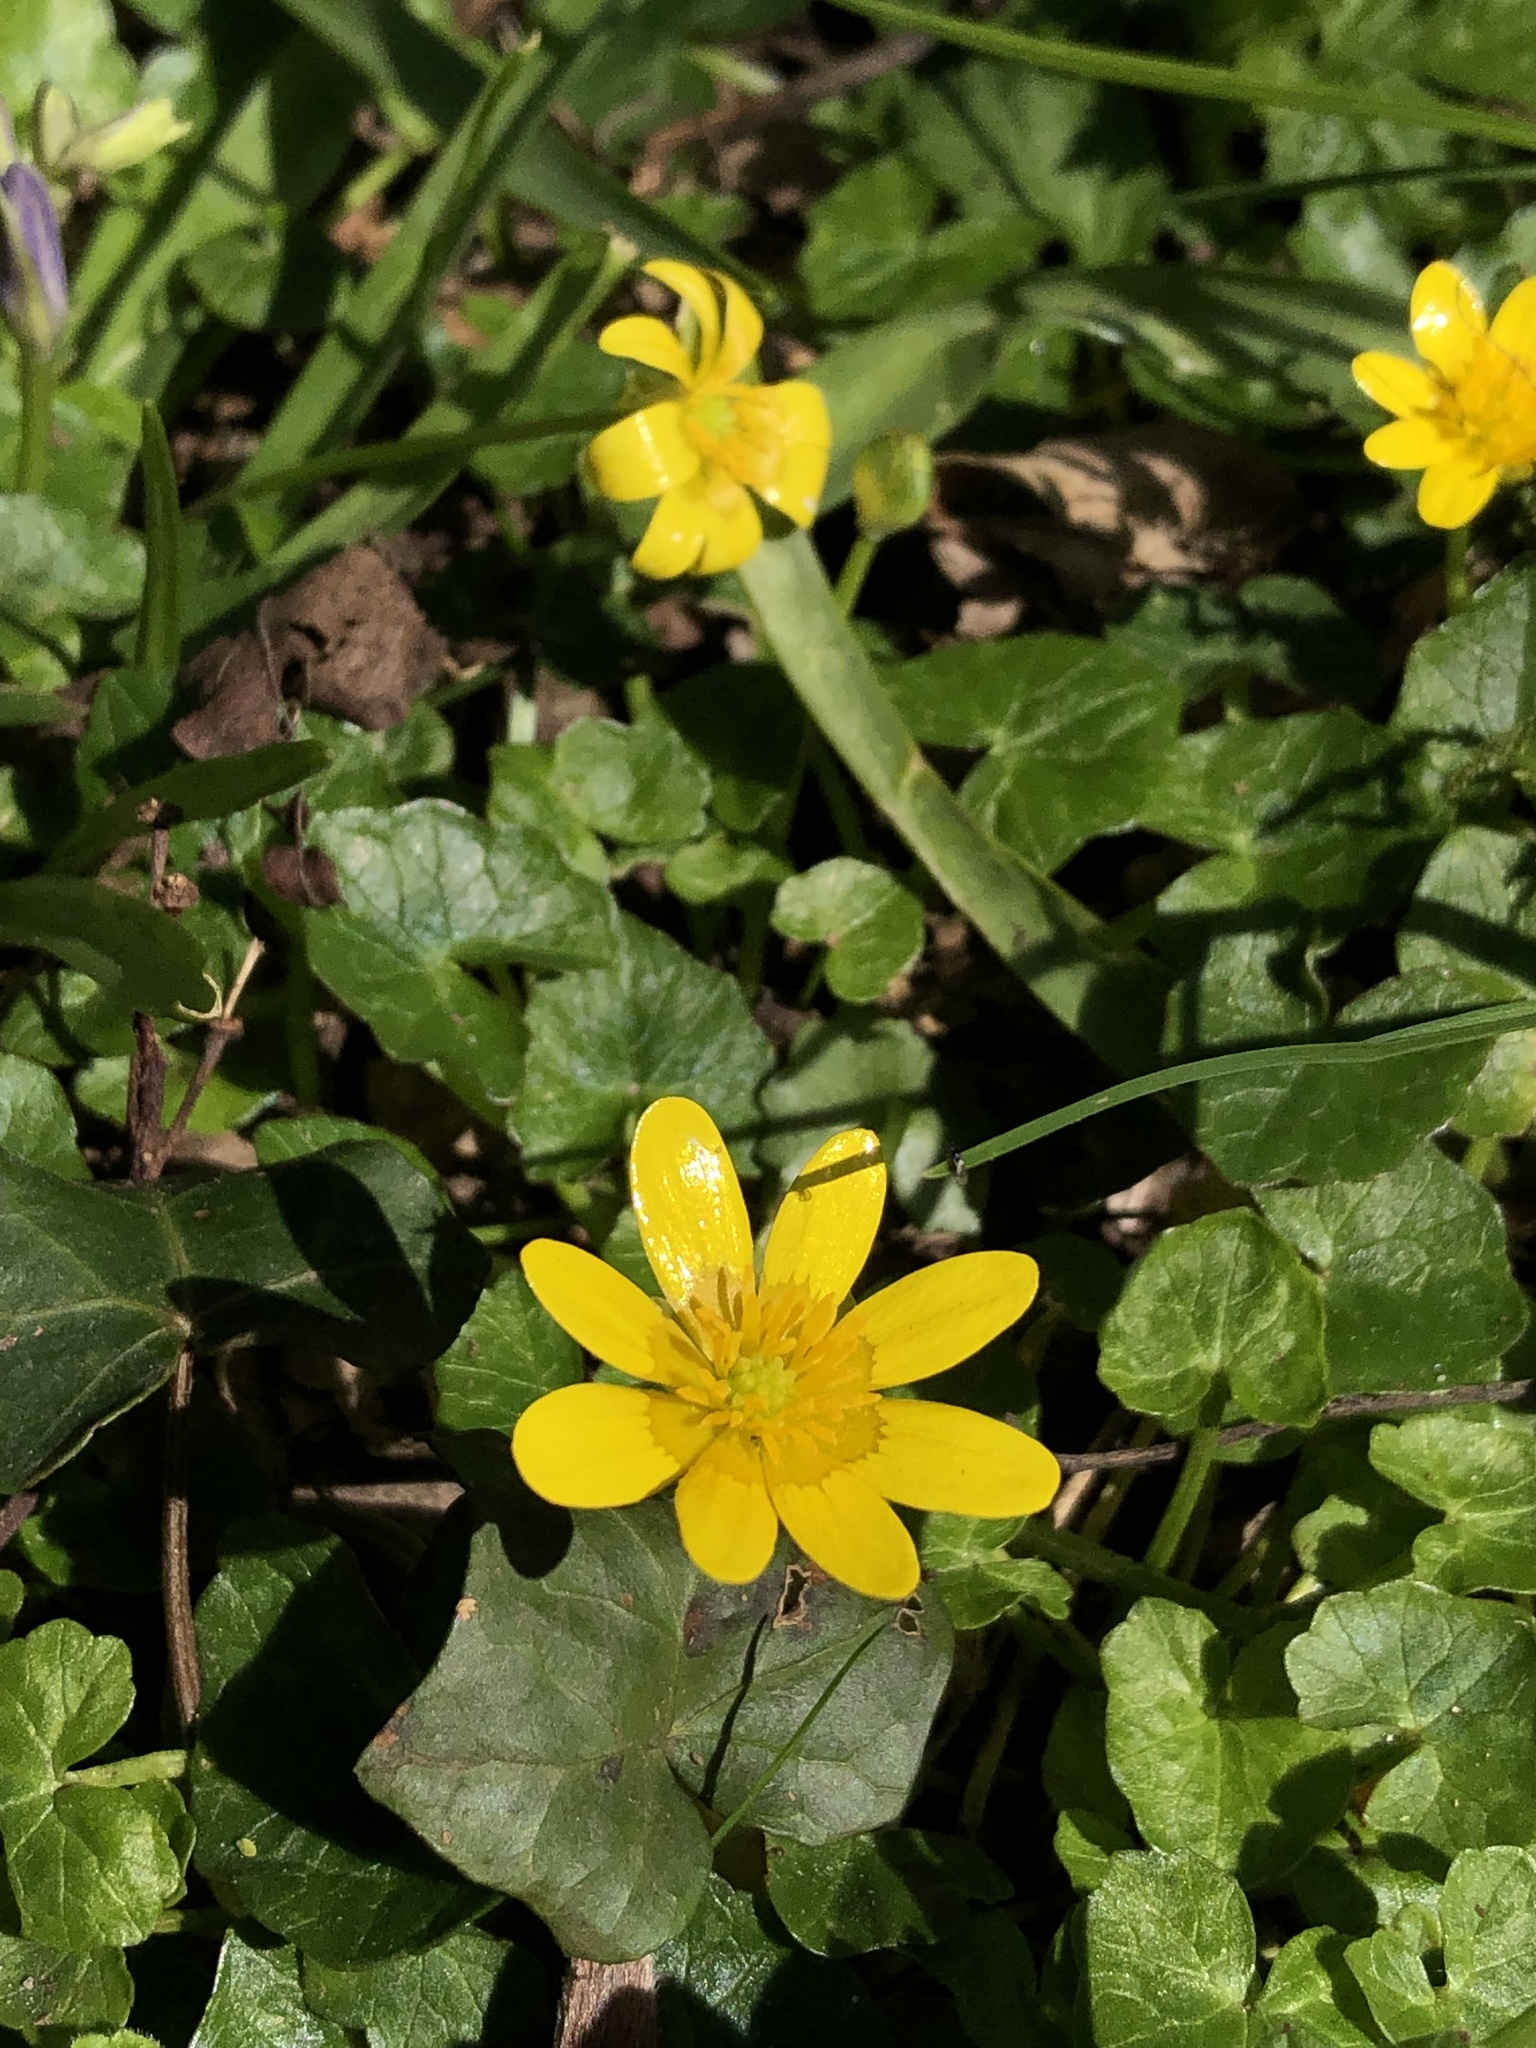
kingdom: Plantae
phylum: Tracheophyta
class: Magnoliopsida
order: Ranunculales
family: Ranunculaceae
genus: Ficaria
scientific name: Ficaria verna
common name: Lesser celandine
